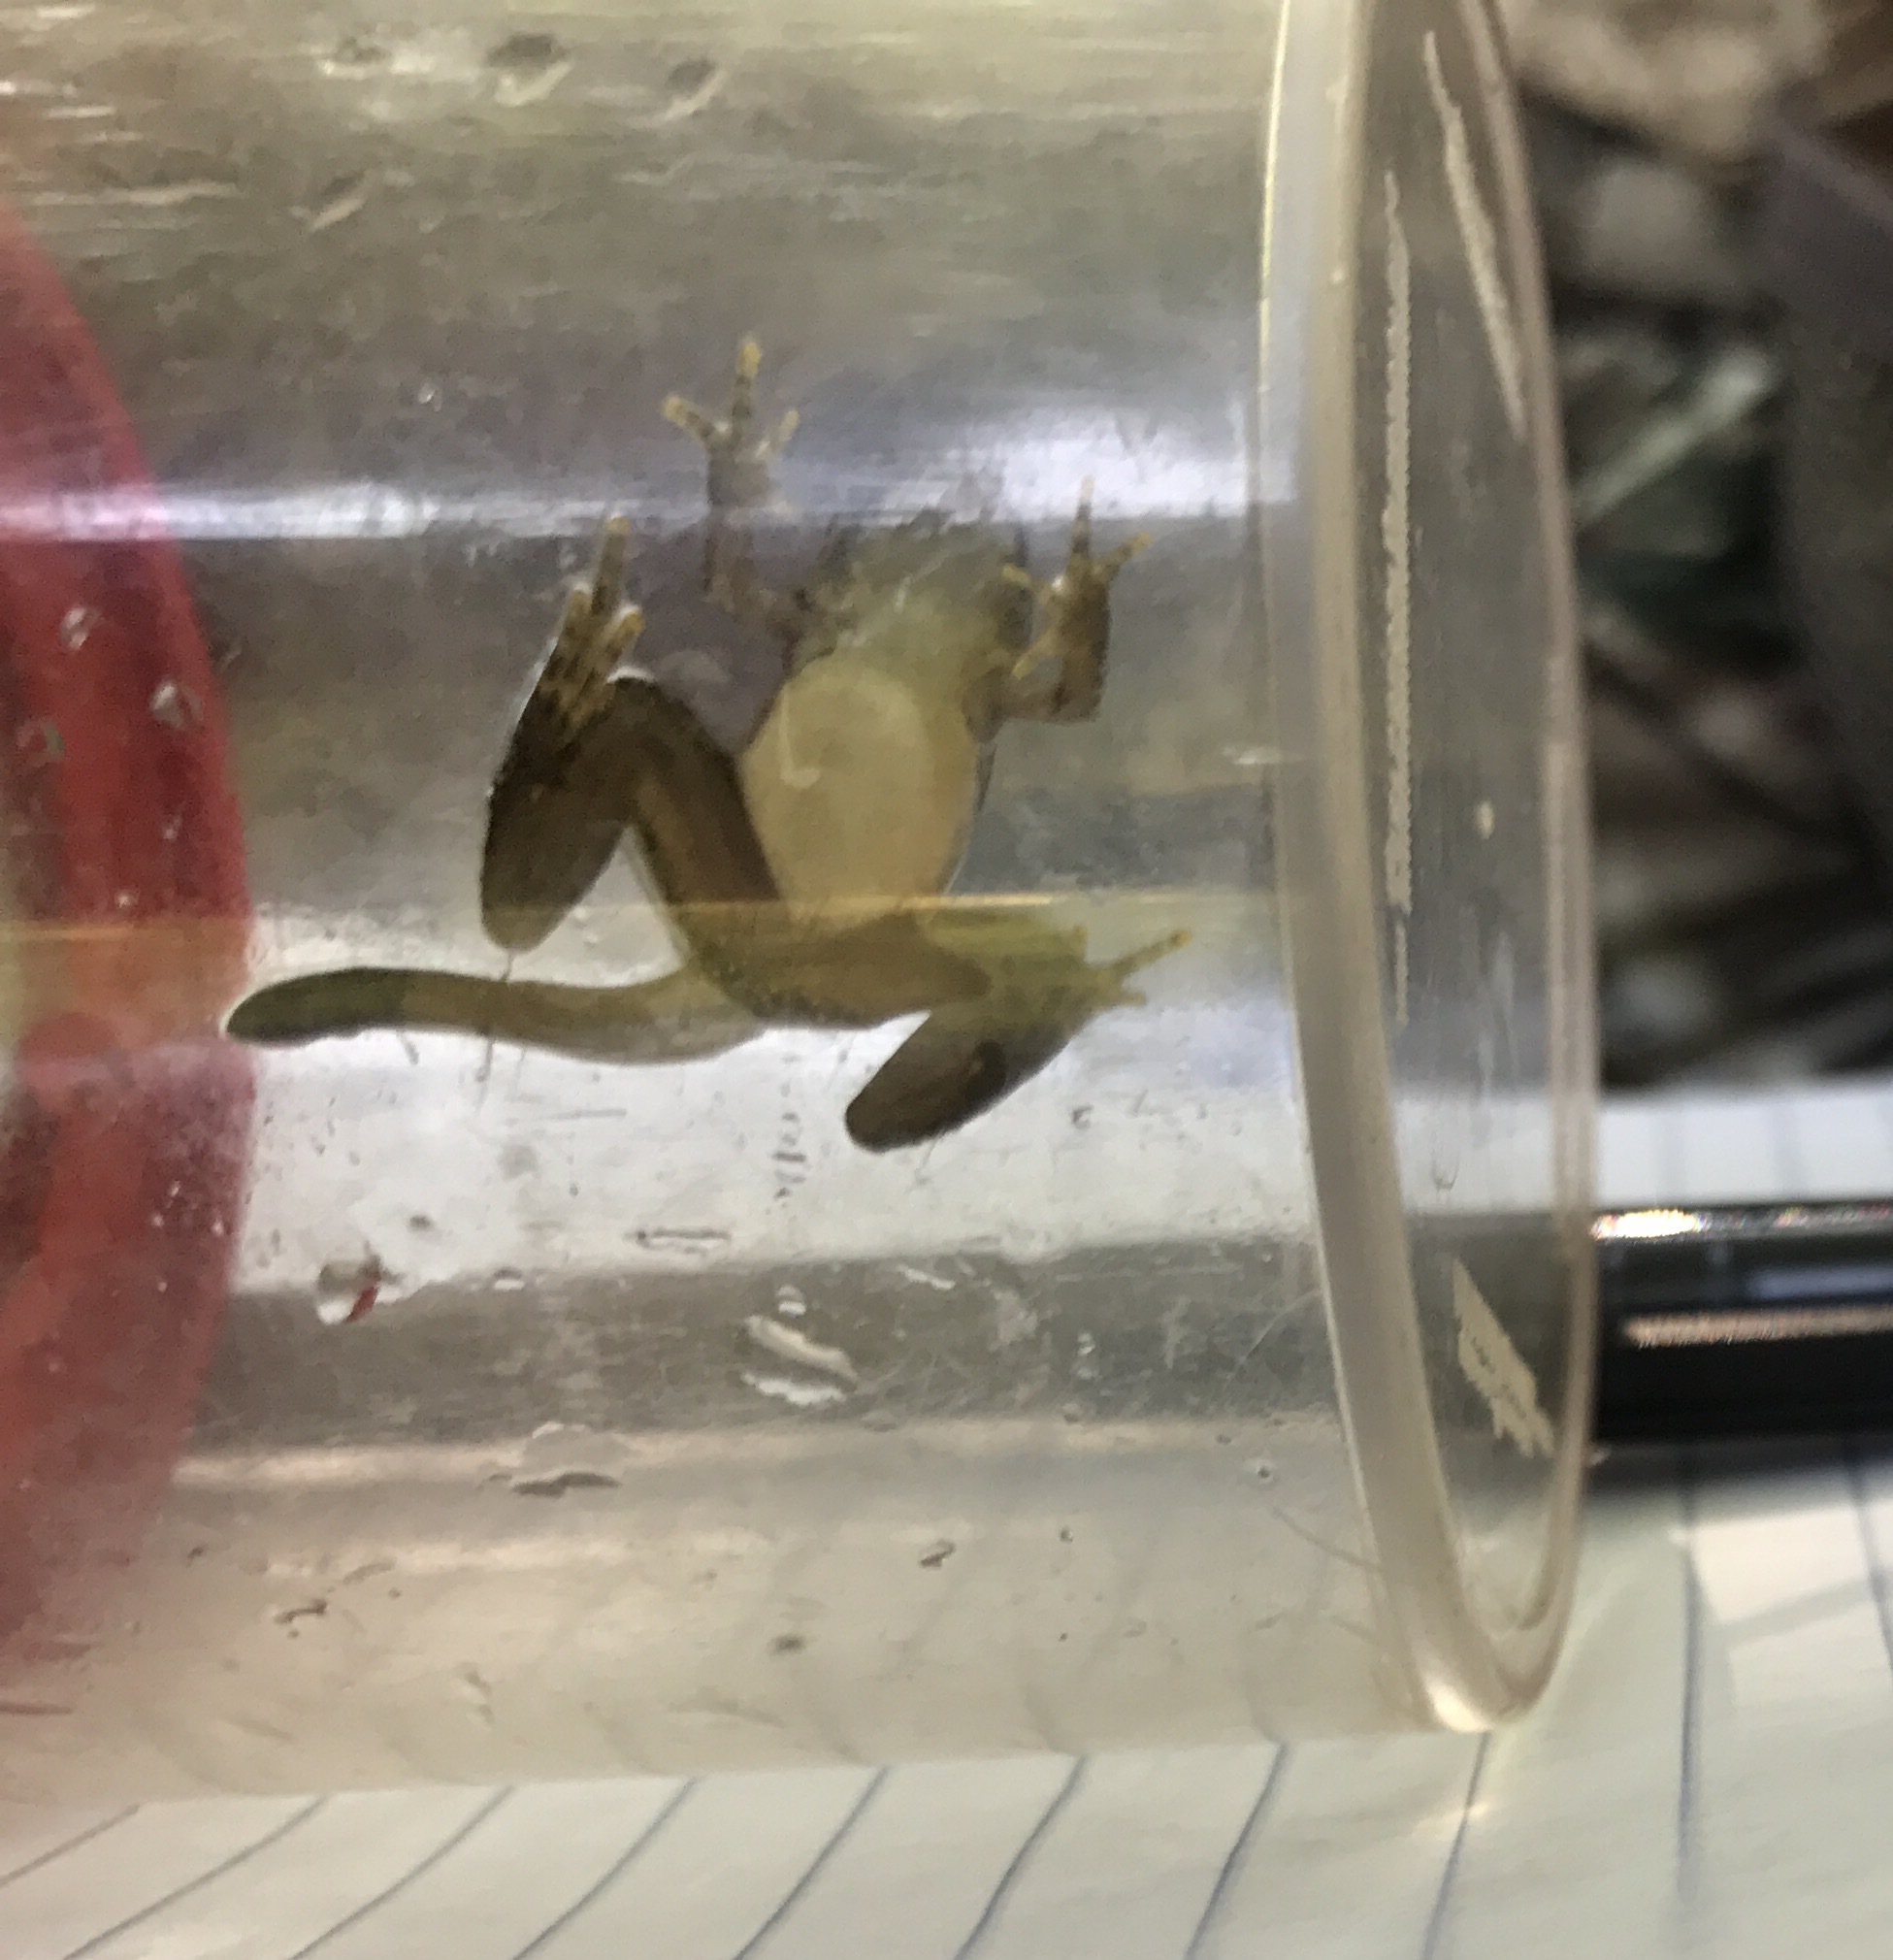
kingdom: Animalia
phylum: Chordata
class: Amphibia
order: Anura
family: Hylidae
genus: Acris
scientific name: Acris crepitans
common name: Northern cricket frog
